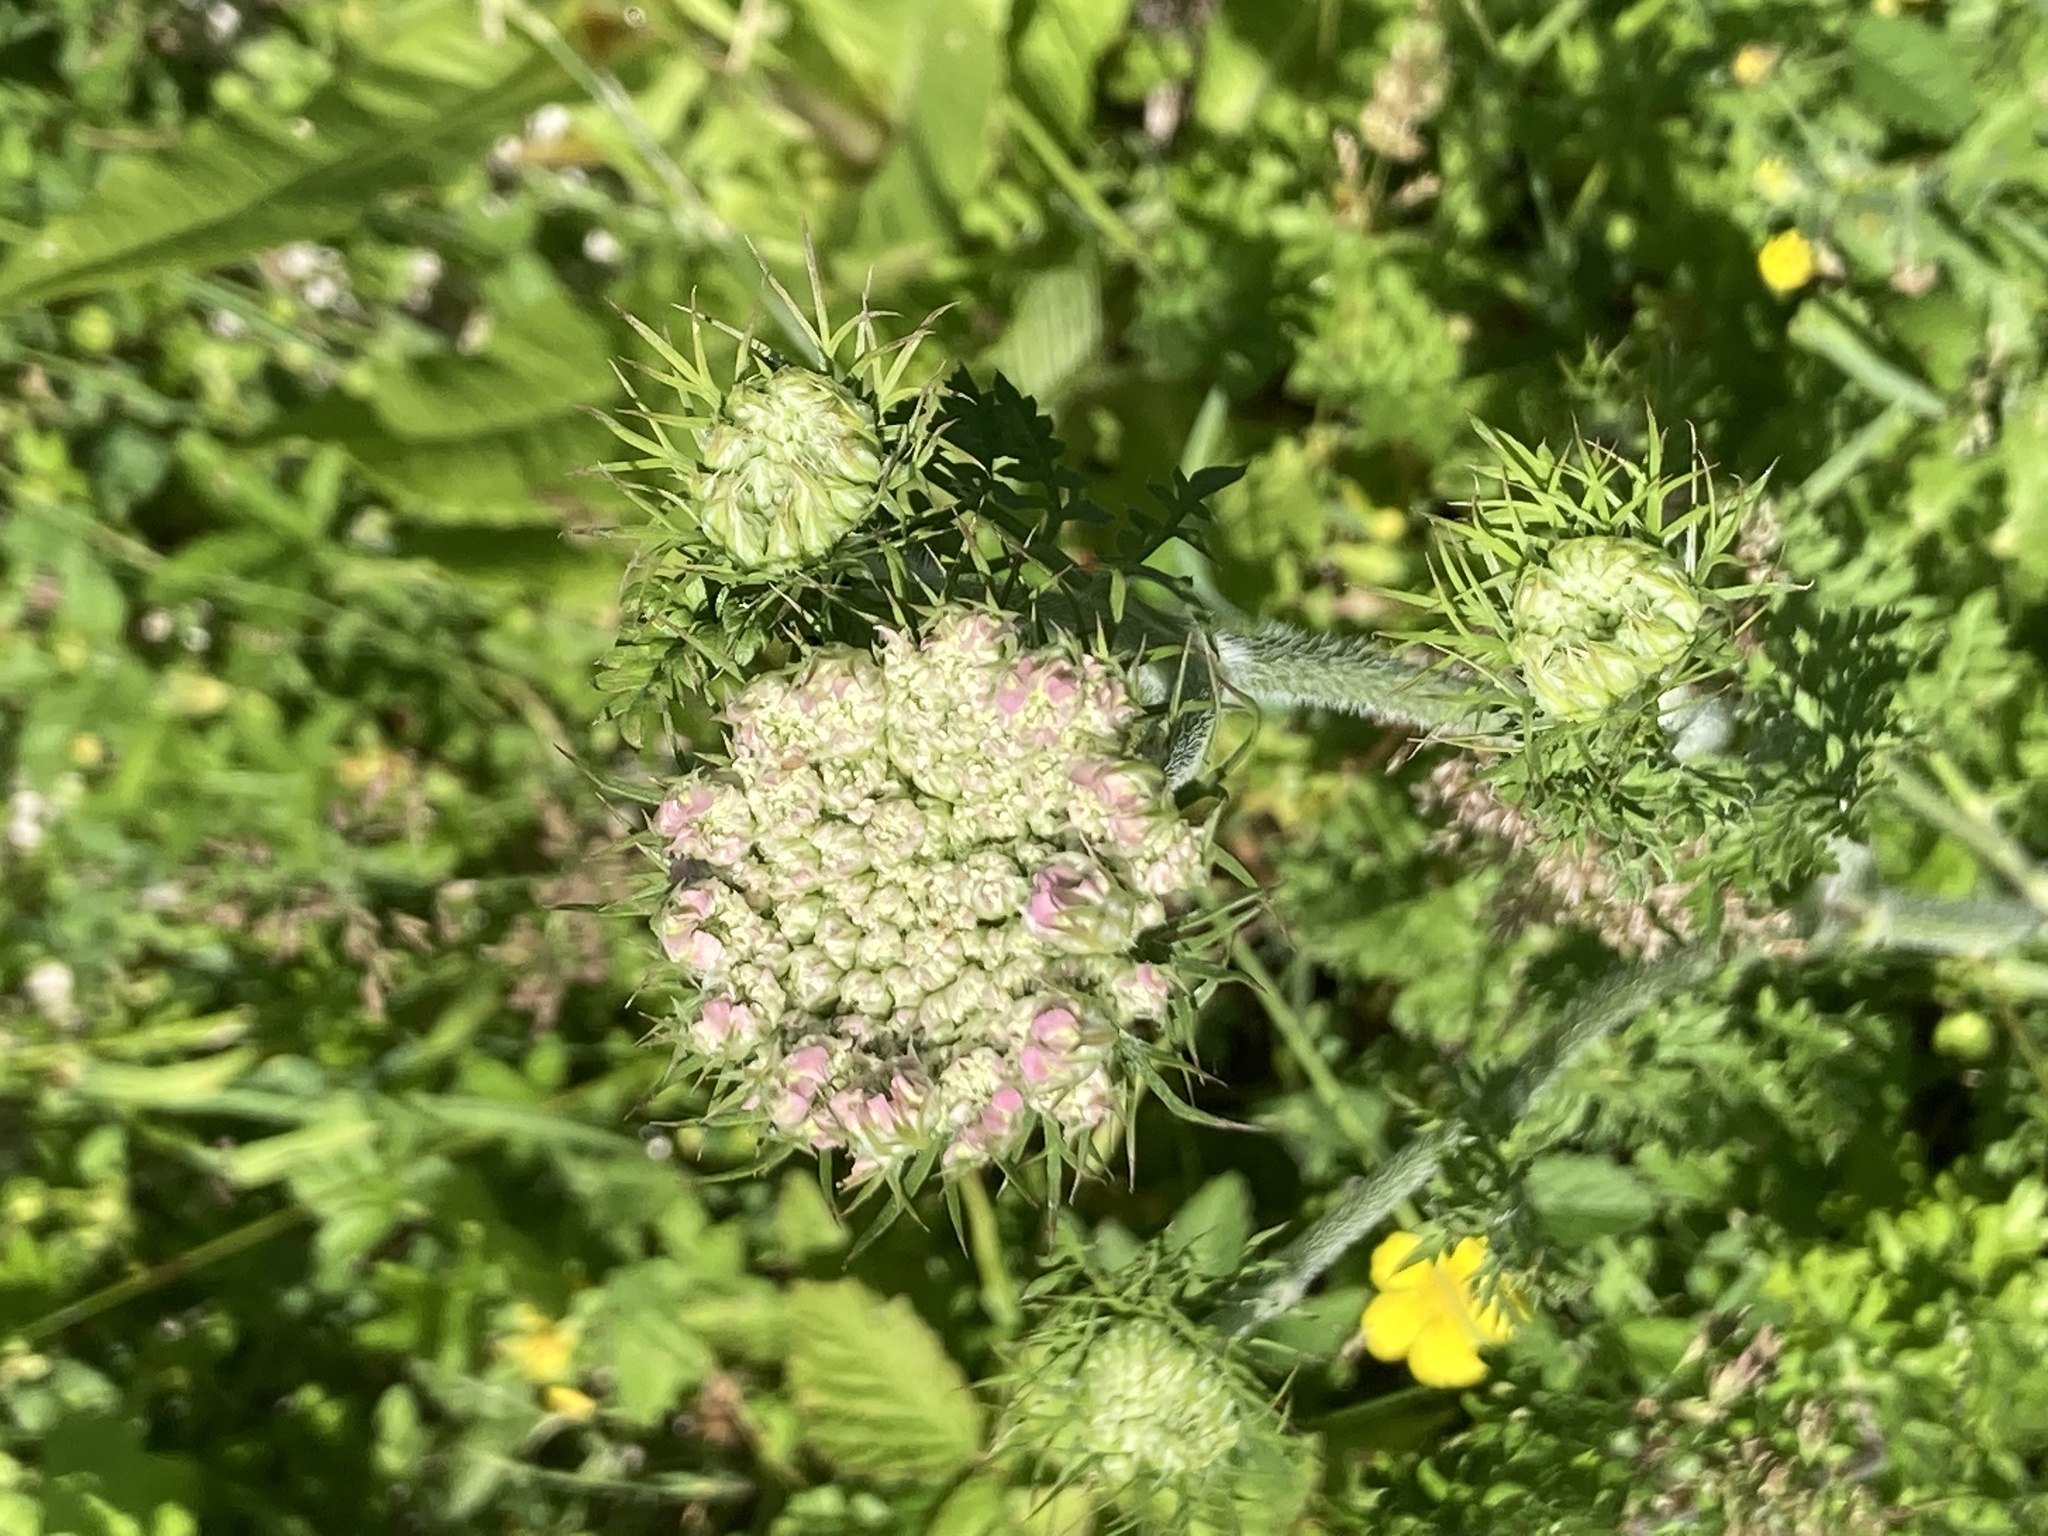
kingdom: Plantae
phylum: Tracheophyta
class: Magnoliopsida
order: Apiales
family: Apiaceae
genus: Daucus
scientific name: Daucus carota
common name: Wild carrot
